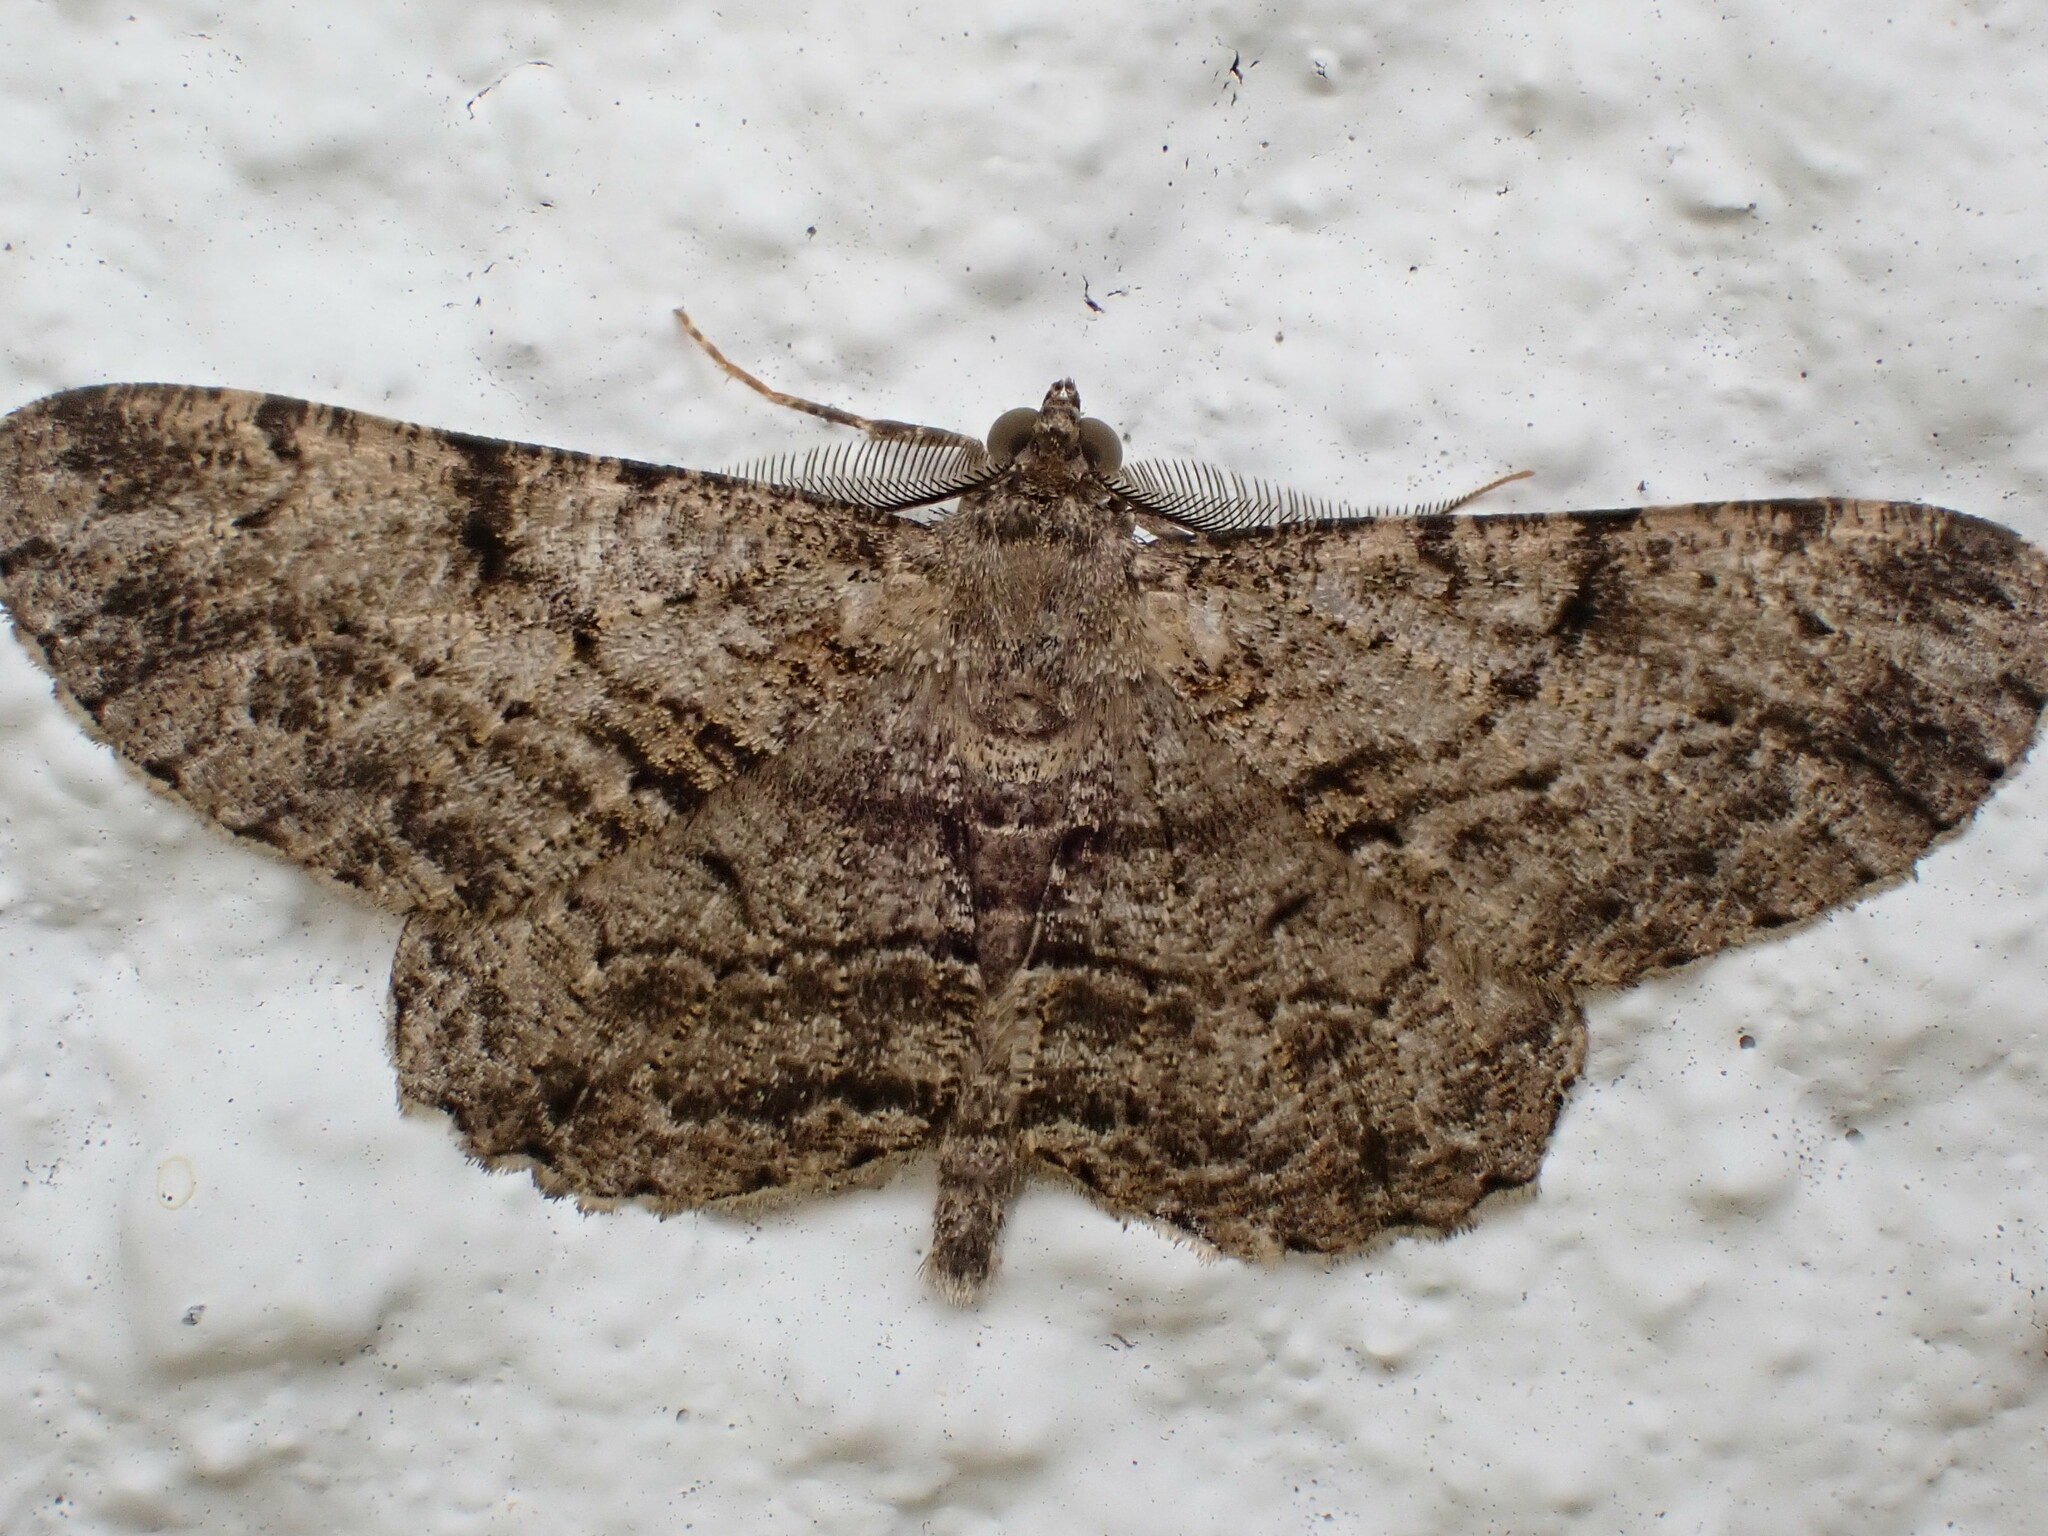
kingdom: Animalia
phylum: Arthropoda
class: Insecta
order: Lepidoptera
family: Geometridae
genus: Peribatodes
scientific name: Peribatodes rhomboidaria
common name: Willow beauty
